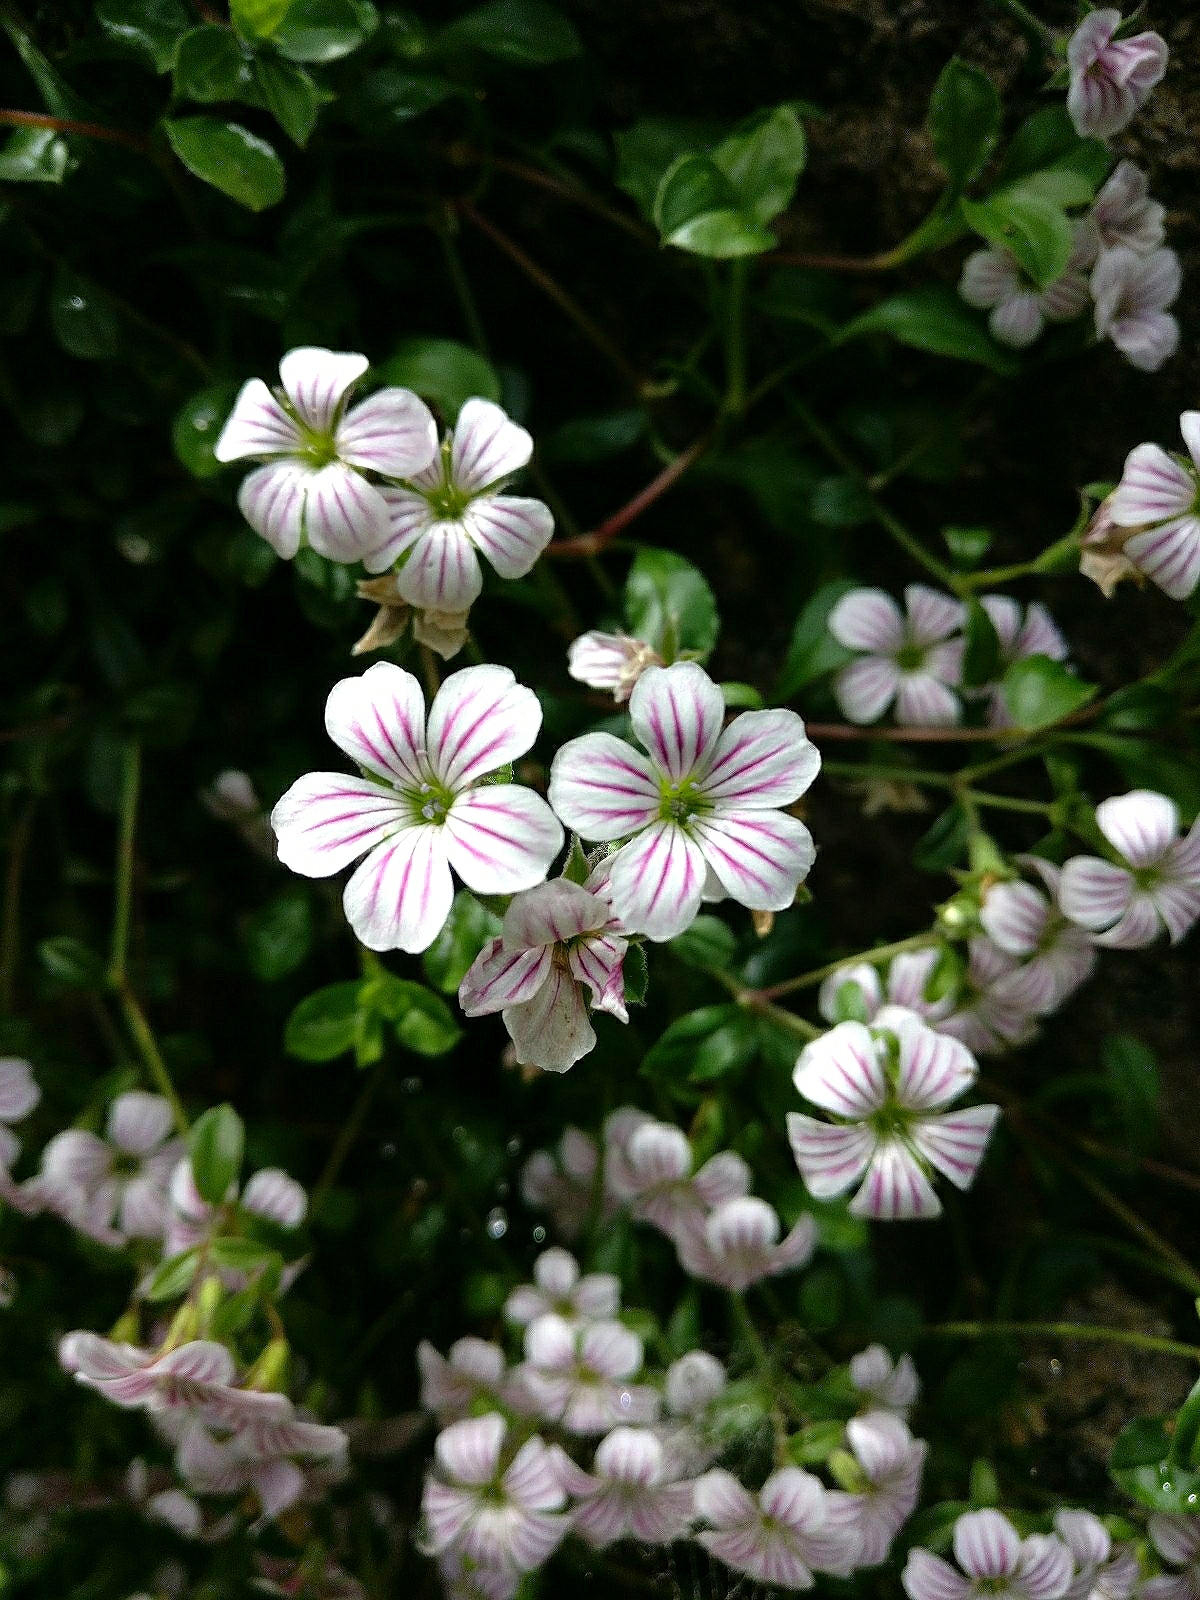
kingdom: Plantae
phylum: Tracheophyta
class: Magnoliopsida
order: Caryophyllales
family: Caryophyllaceae
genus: Acanthophyllum
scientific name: Acanthophyllum cerastioides
